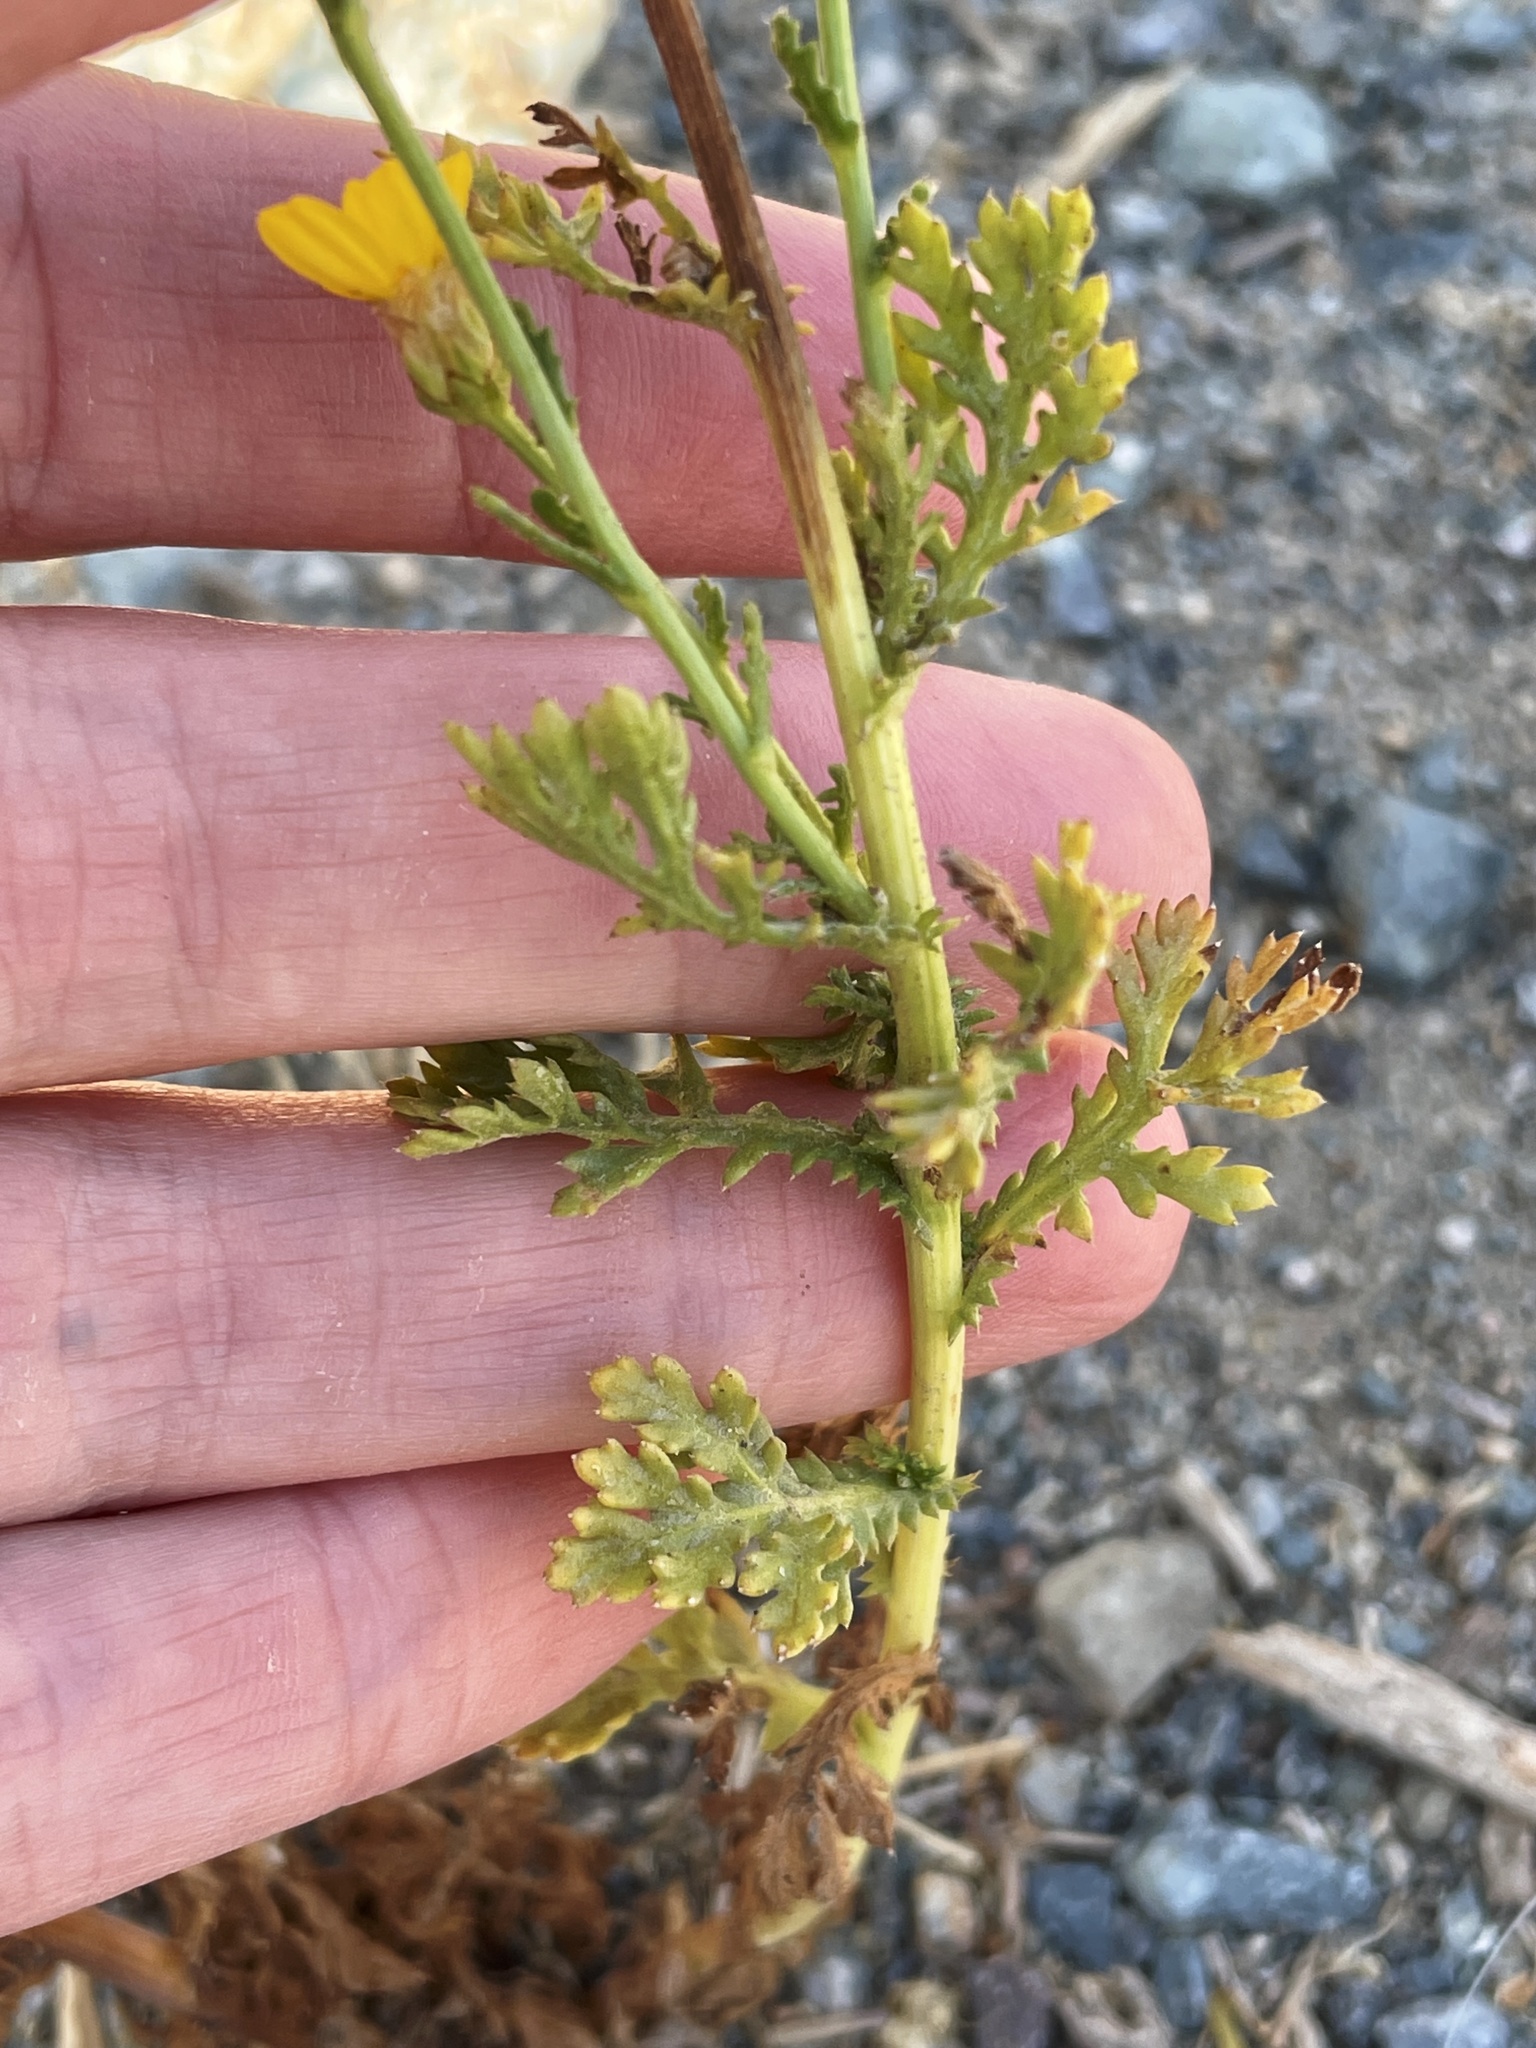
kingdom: Plantae
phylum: Tracheophyta
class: Magnoliopsida
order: Asterales
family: Asteraceae
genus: Glebionis
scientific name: Glebionis coronaria
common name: Crowndaisy
